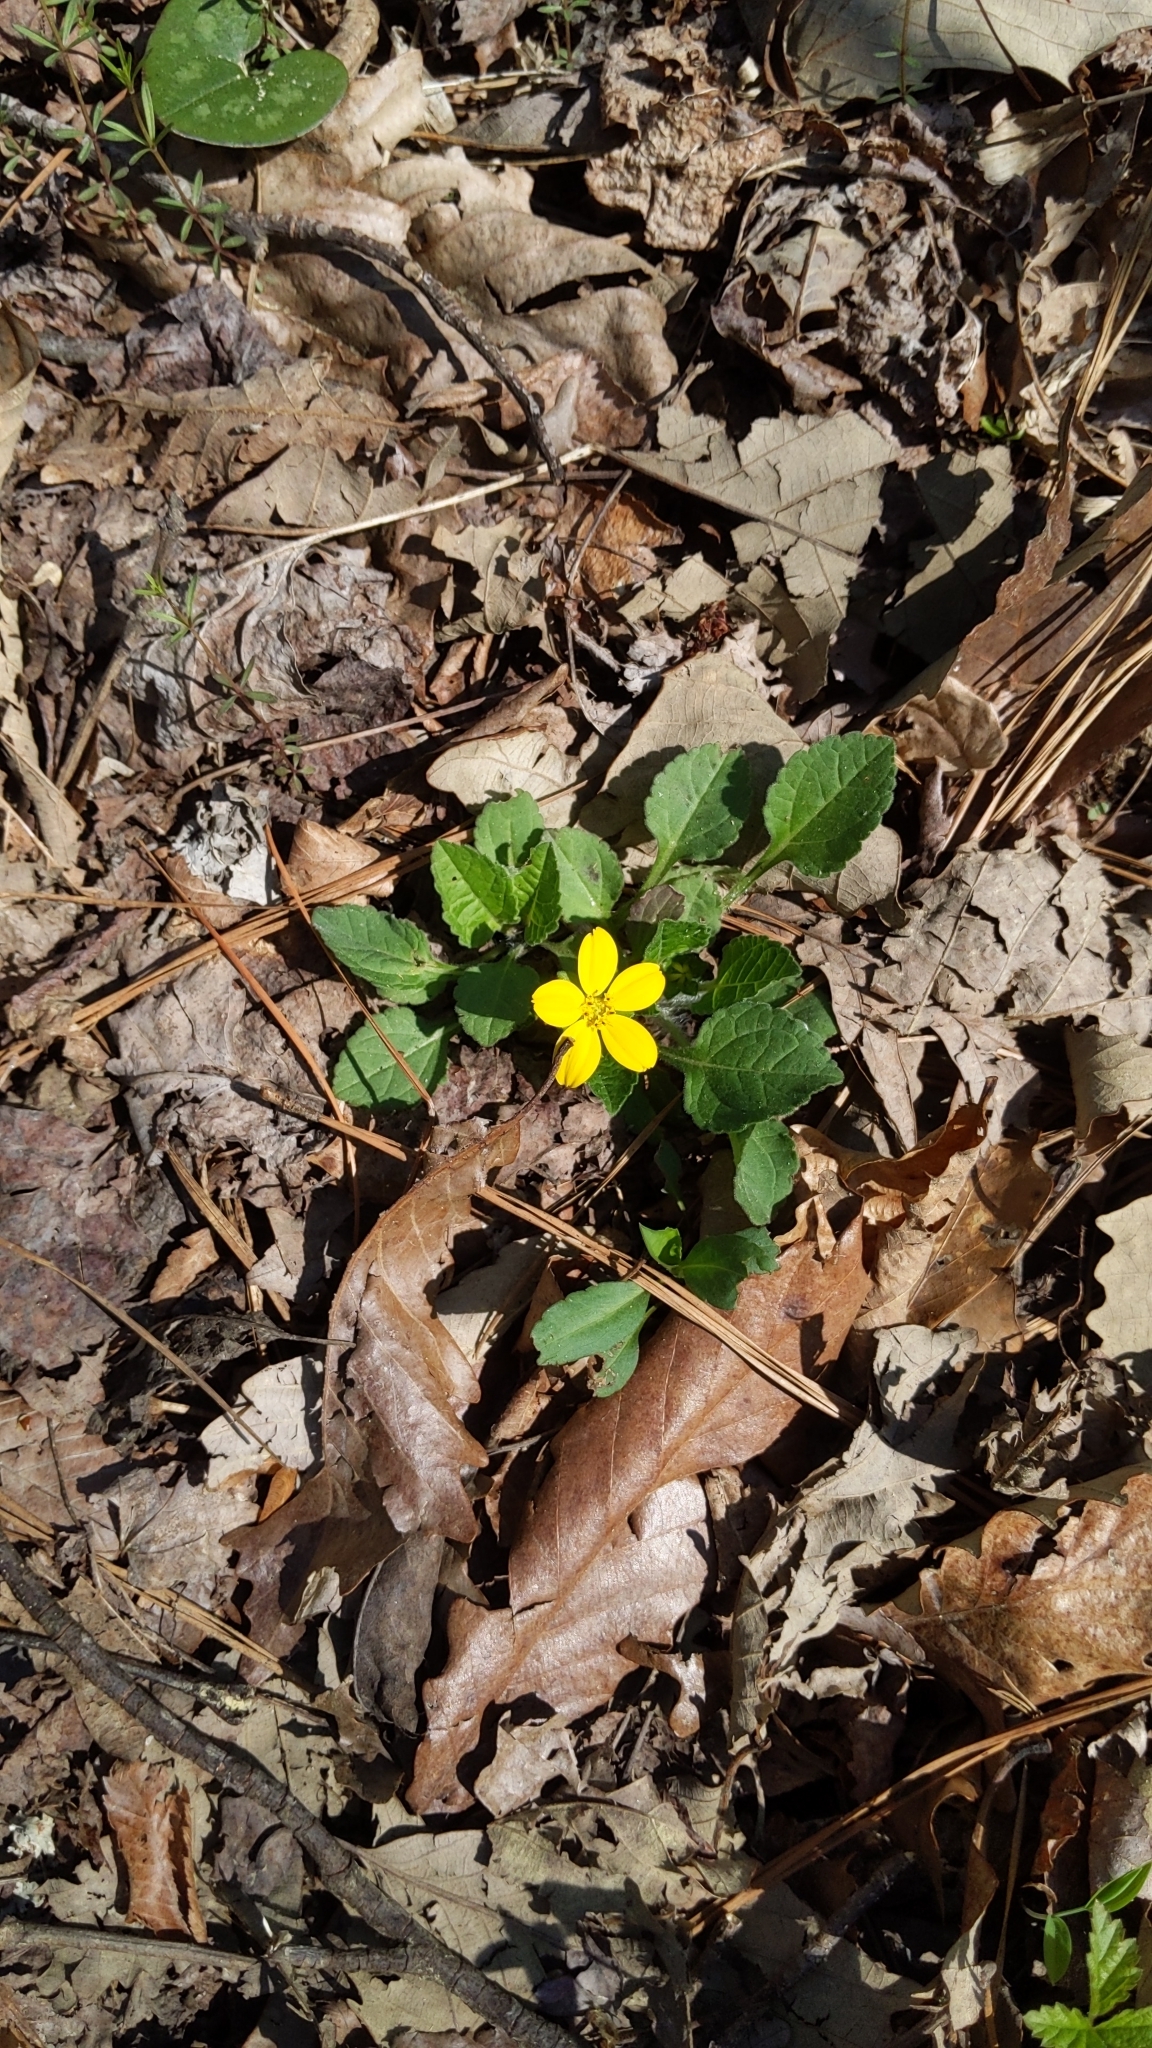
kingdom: Plantae
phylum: Tracheophyta
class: Magnoliopsida
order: Asterales
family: Asteraceae
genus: Chrysogonum
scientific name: Chrysogonum virginianum
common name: Golden-knee
